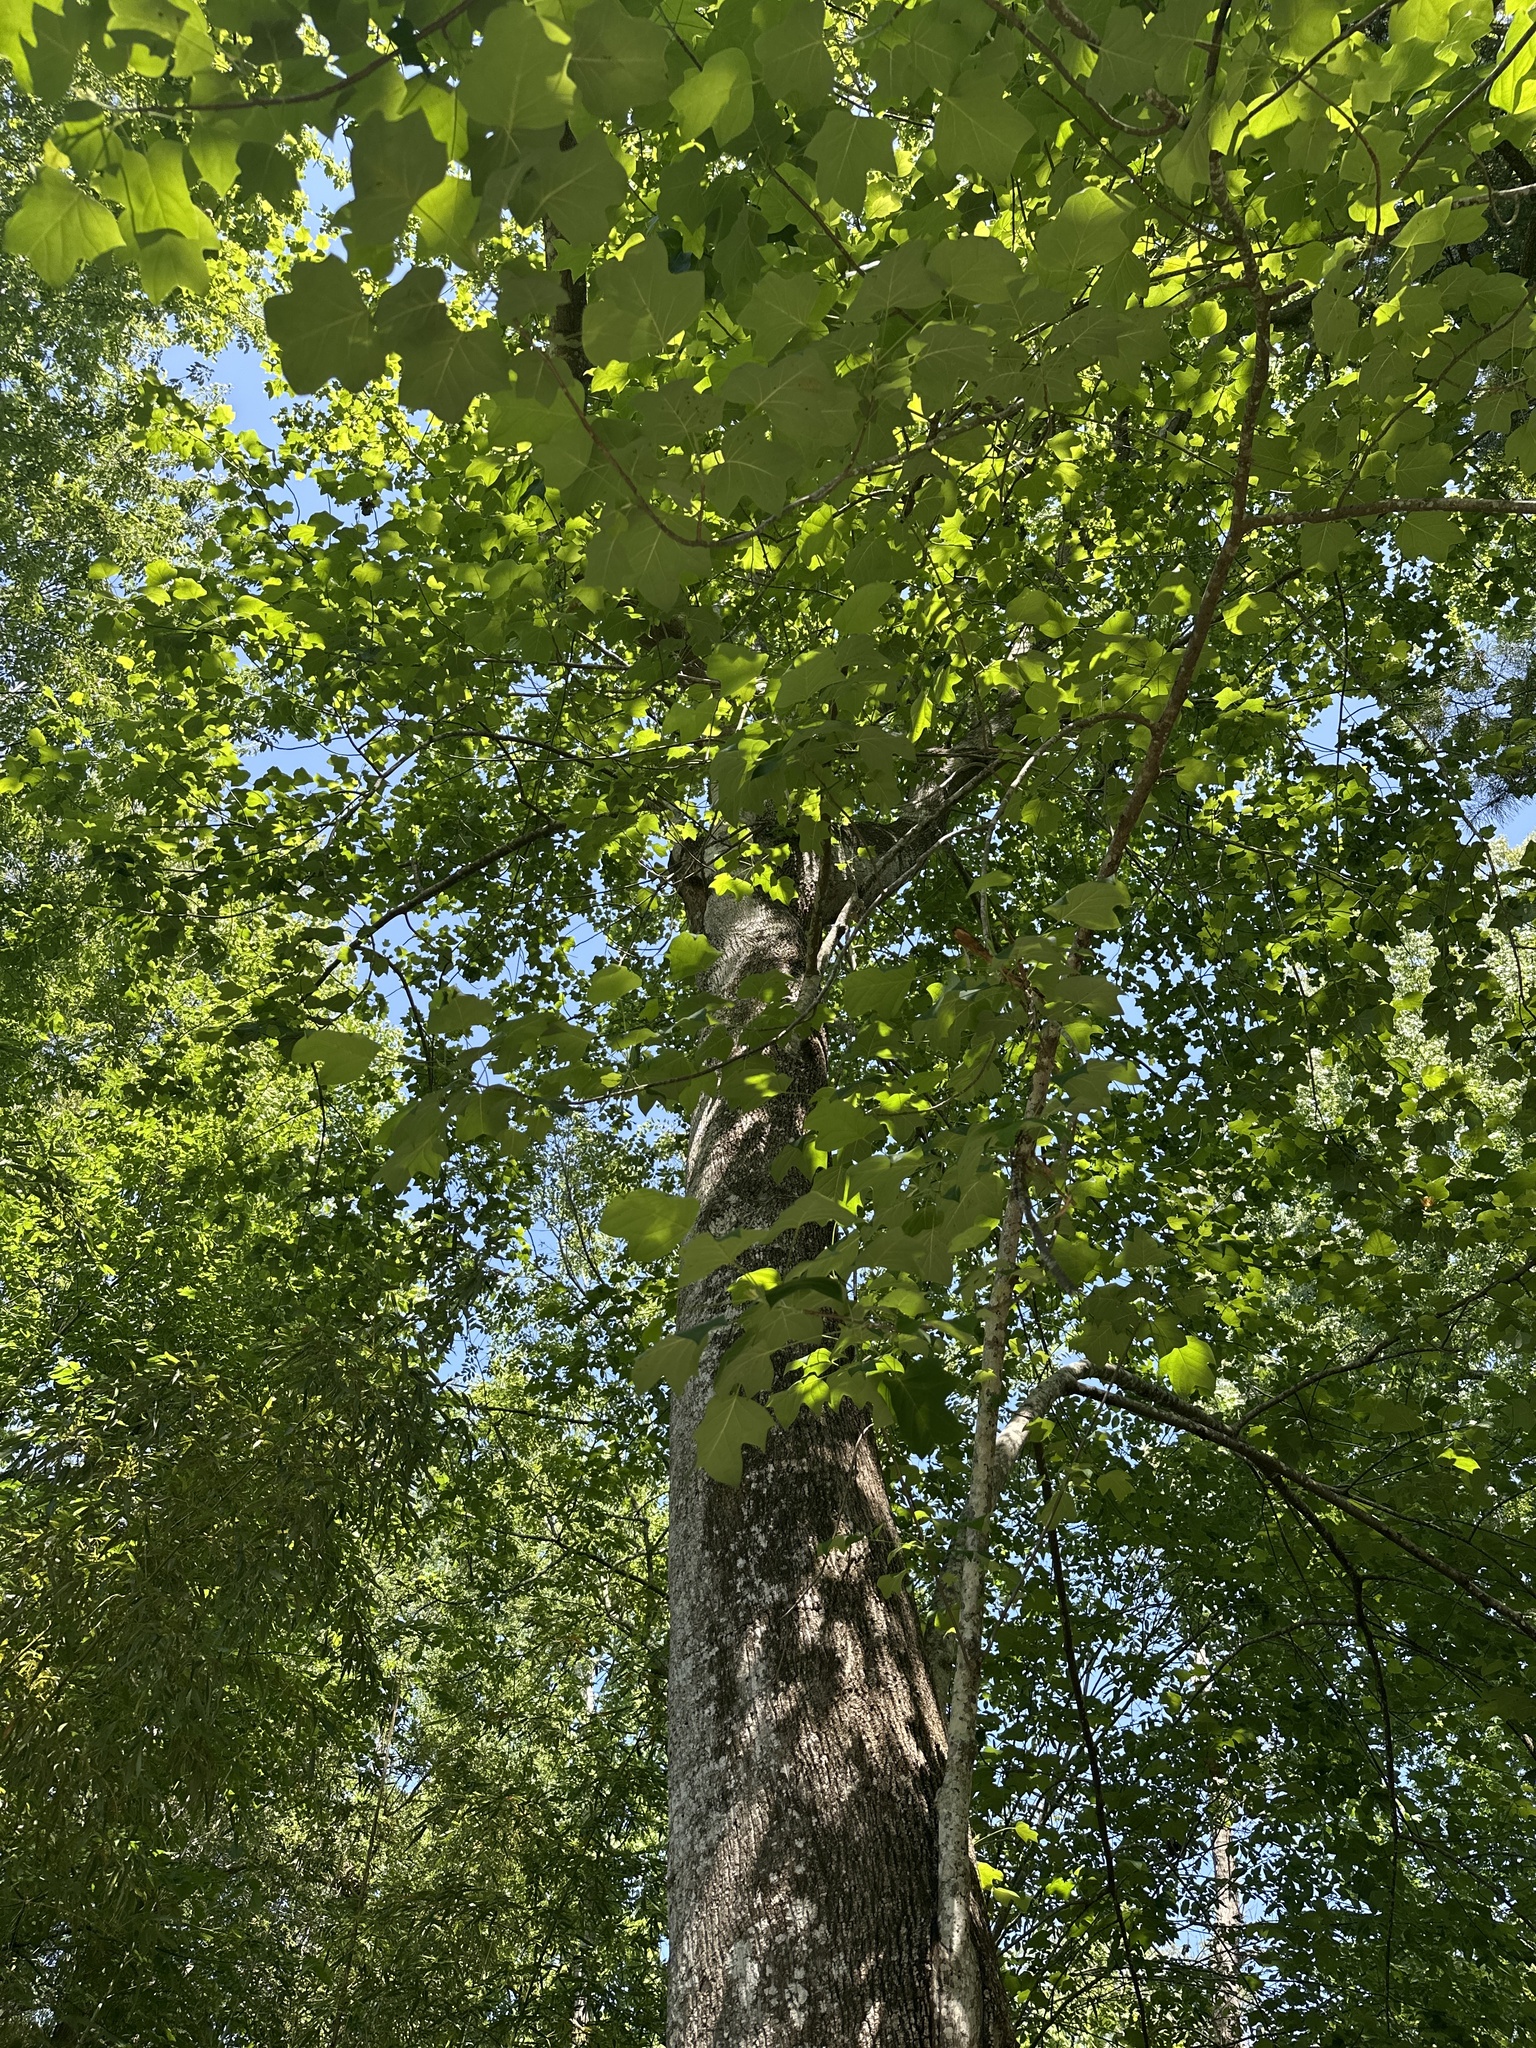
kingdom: Plantae
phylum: Tracheophyta
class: Magnoliopsida
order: Magnoliales
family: Magnoliaceae
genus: Liriodendron
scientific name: Liriodendron tulipifera
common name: Tulip tree
